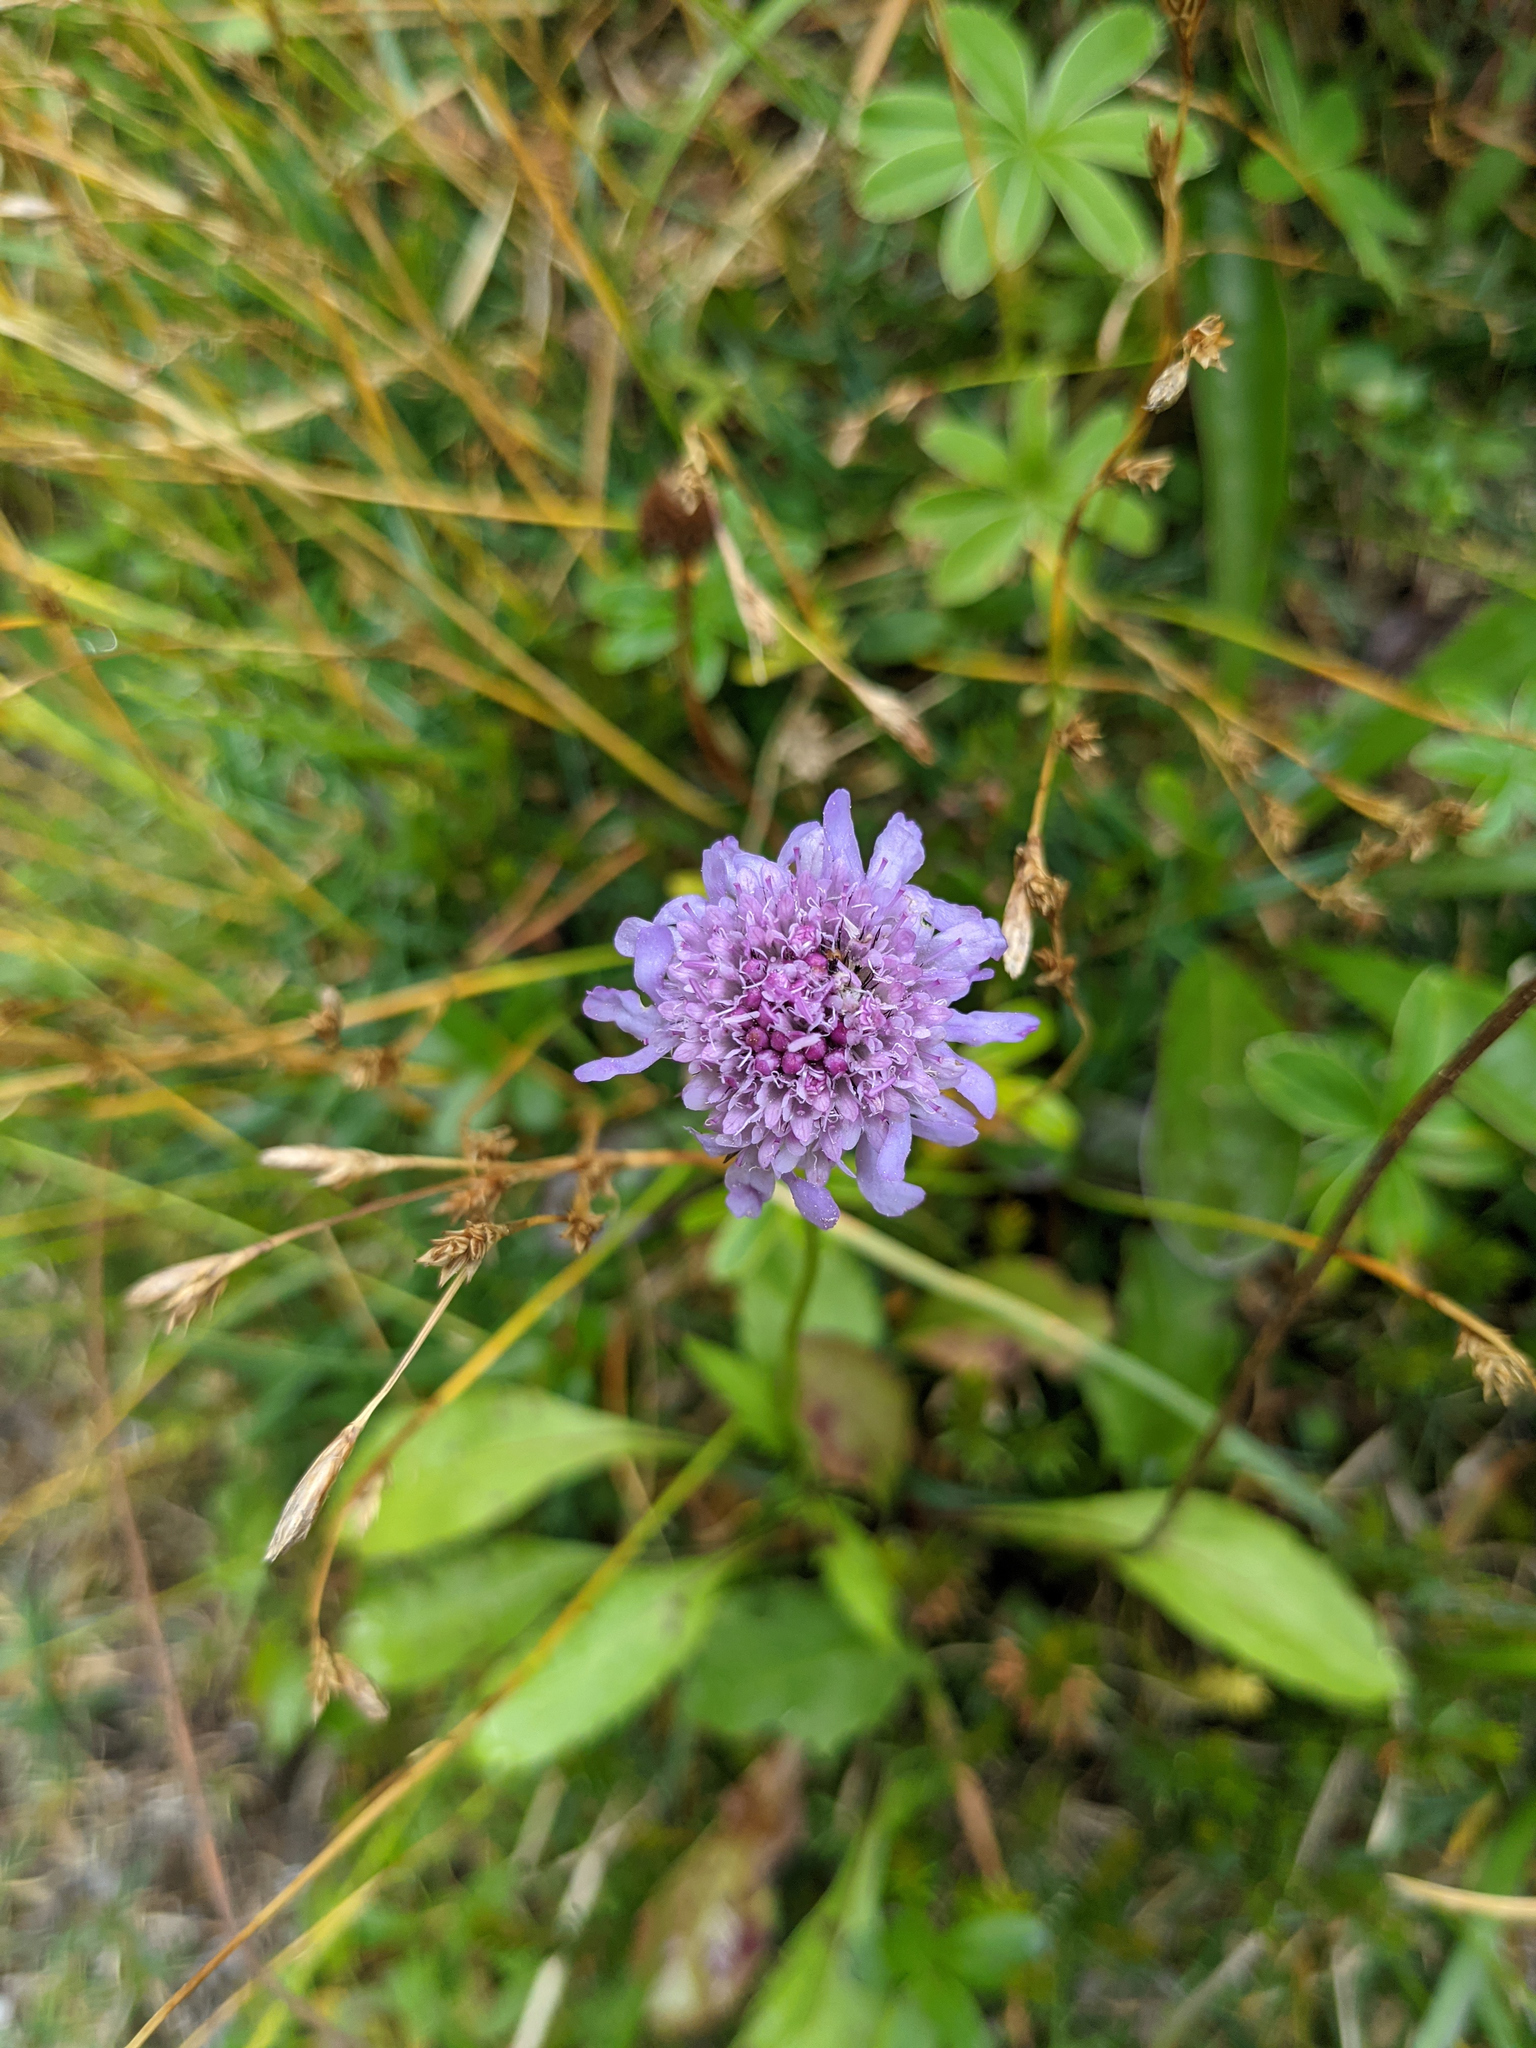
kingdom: Plantae
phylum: Tracheophyta
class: Magnoliopsida
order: Dipsacales
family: Caprifoliaceae
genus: Scabiosa
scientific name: Scabiosa lucida
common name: Shining scabious
